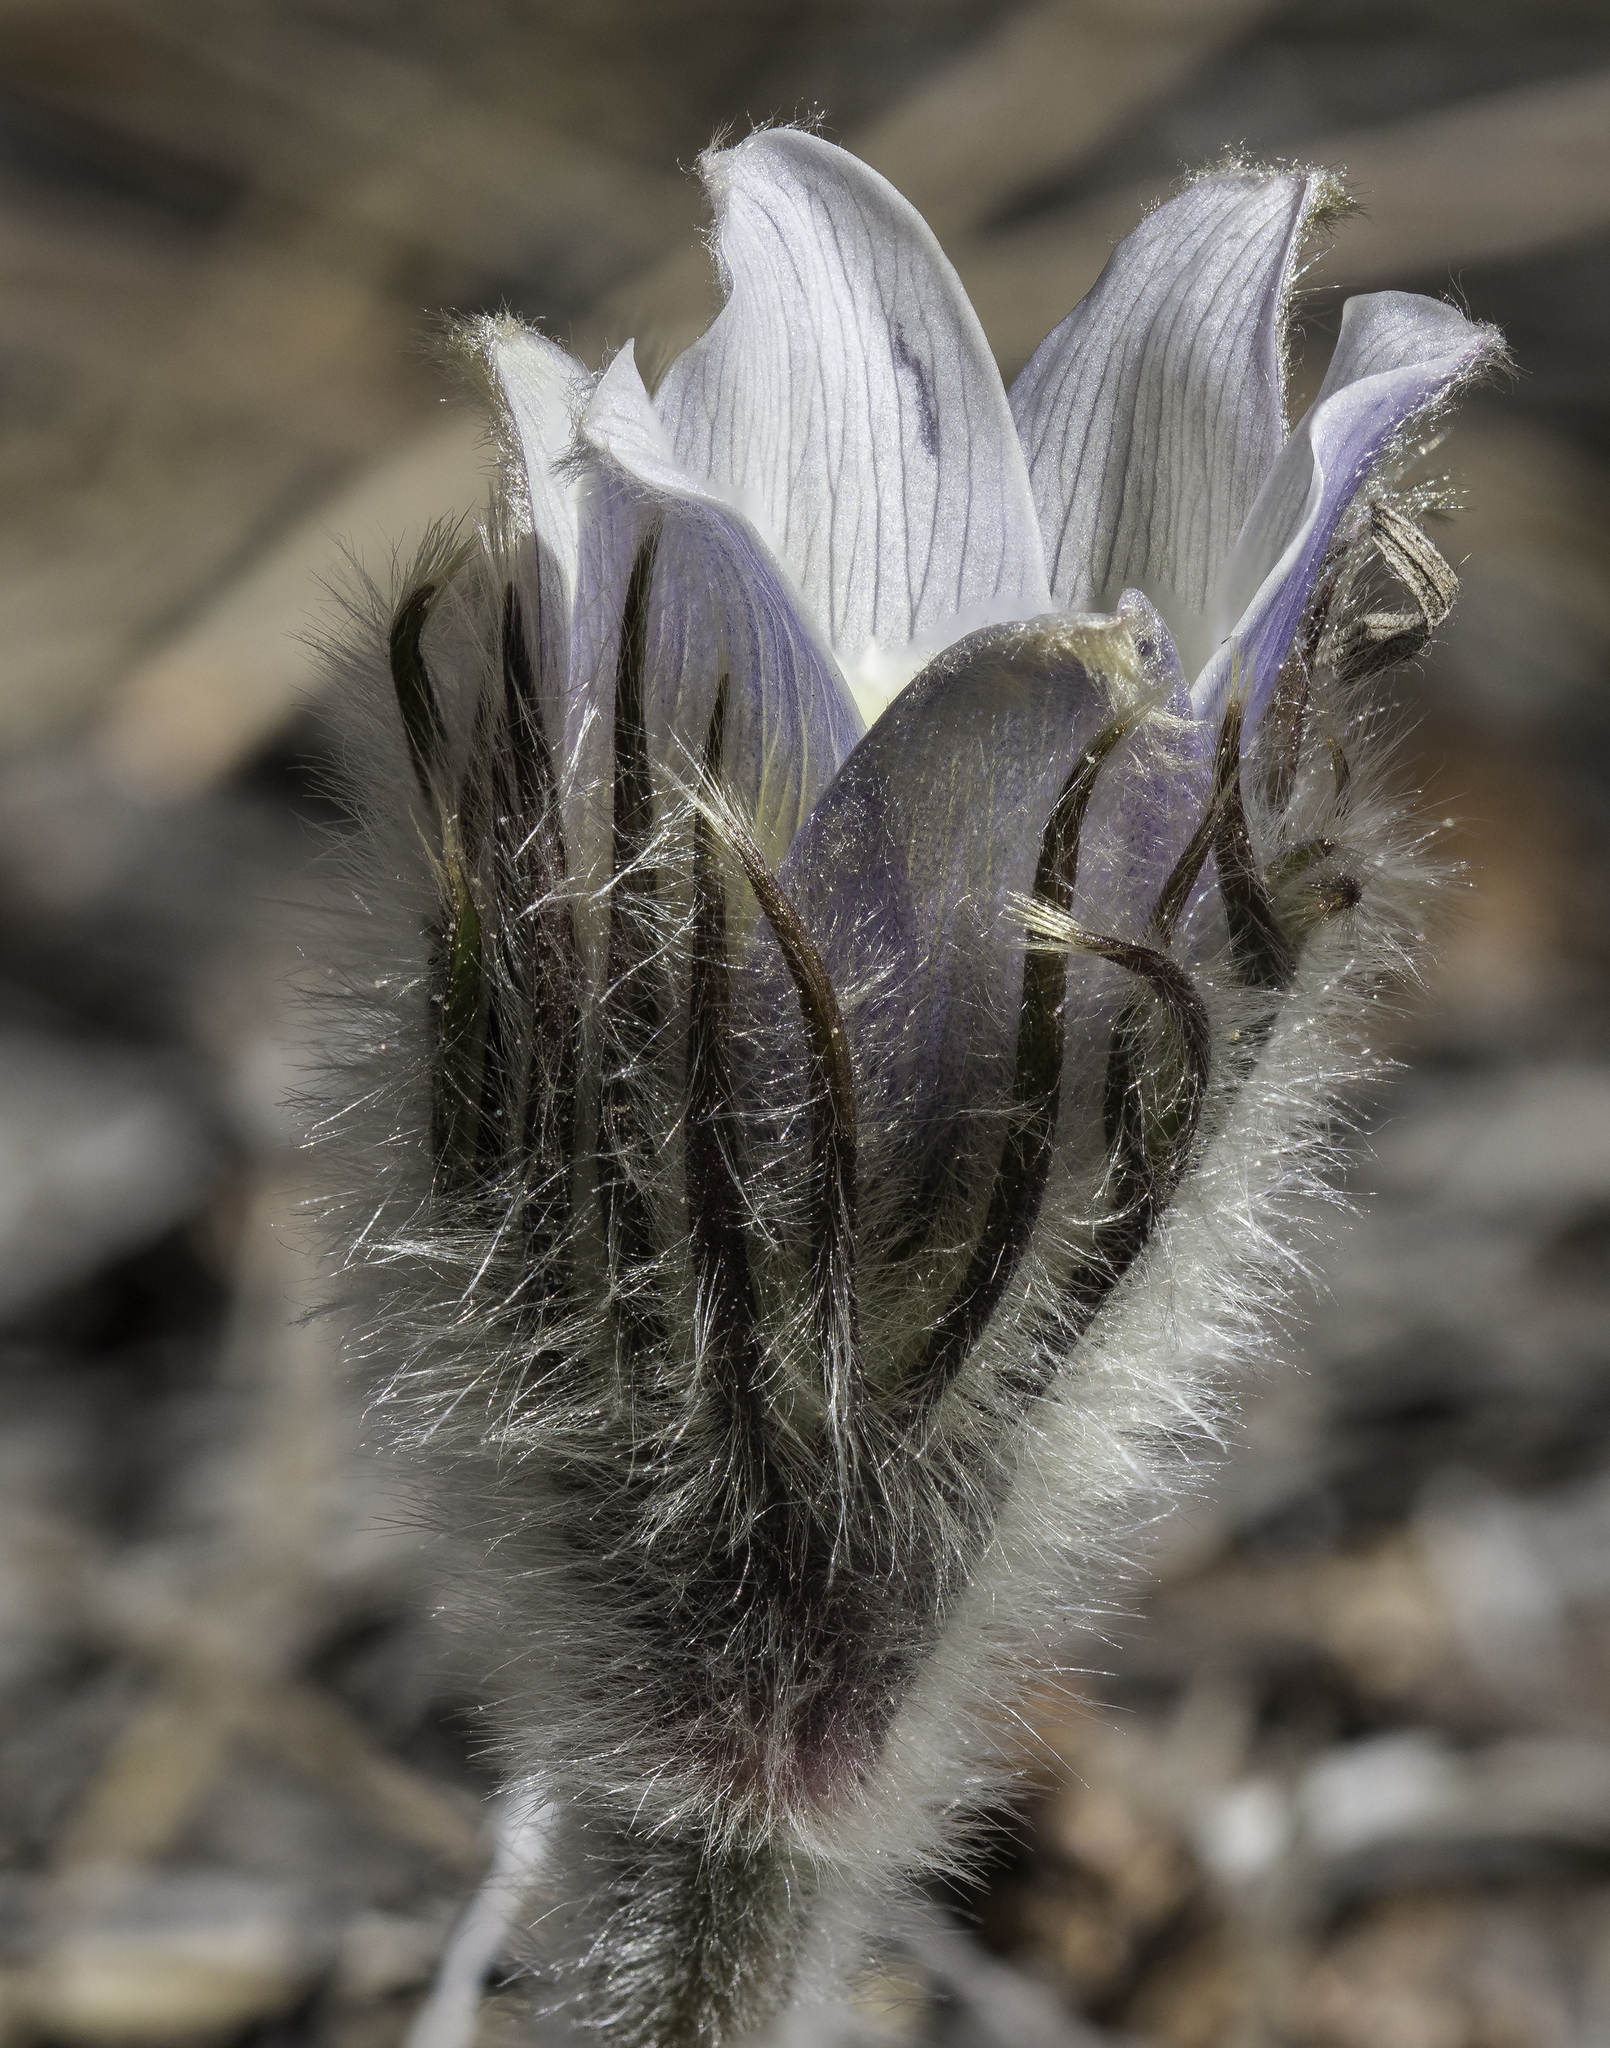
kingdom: Plantae
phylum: Tracheophyta
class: Magnoliopsida
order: Ranunculales
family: Ranunculaceae
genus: Pulsatilla
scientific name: Pulsatilla nuttalliana
